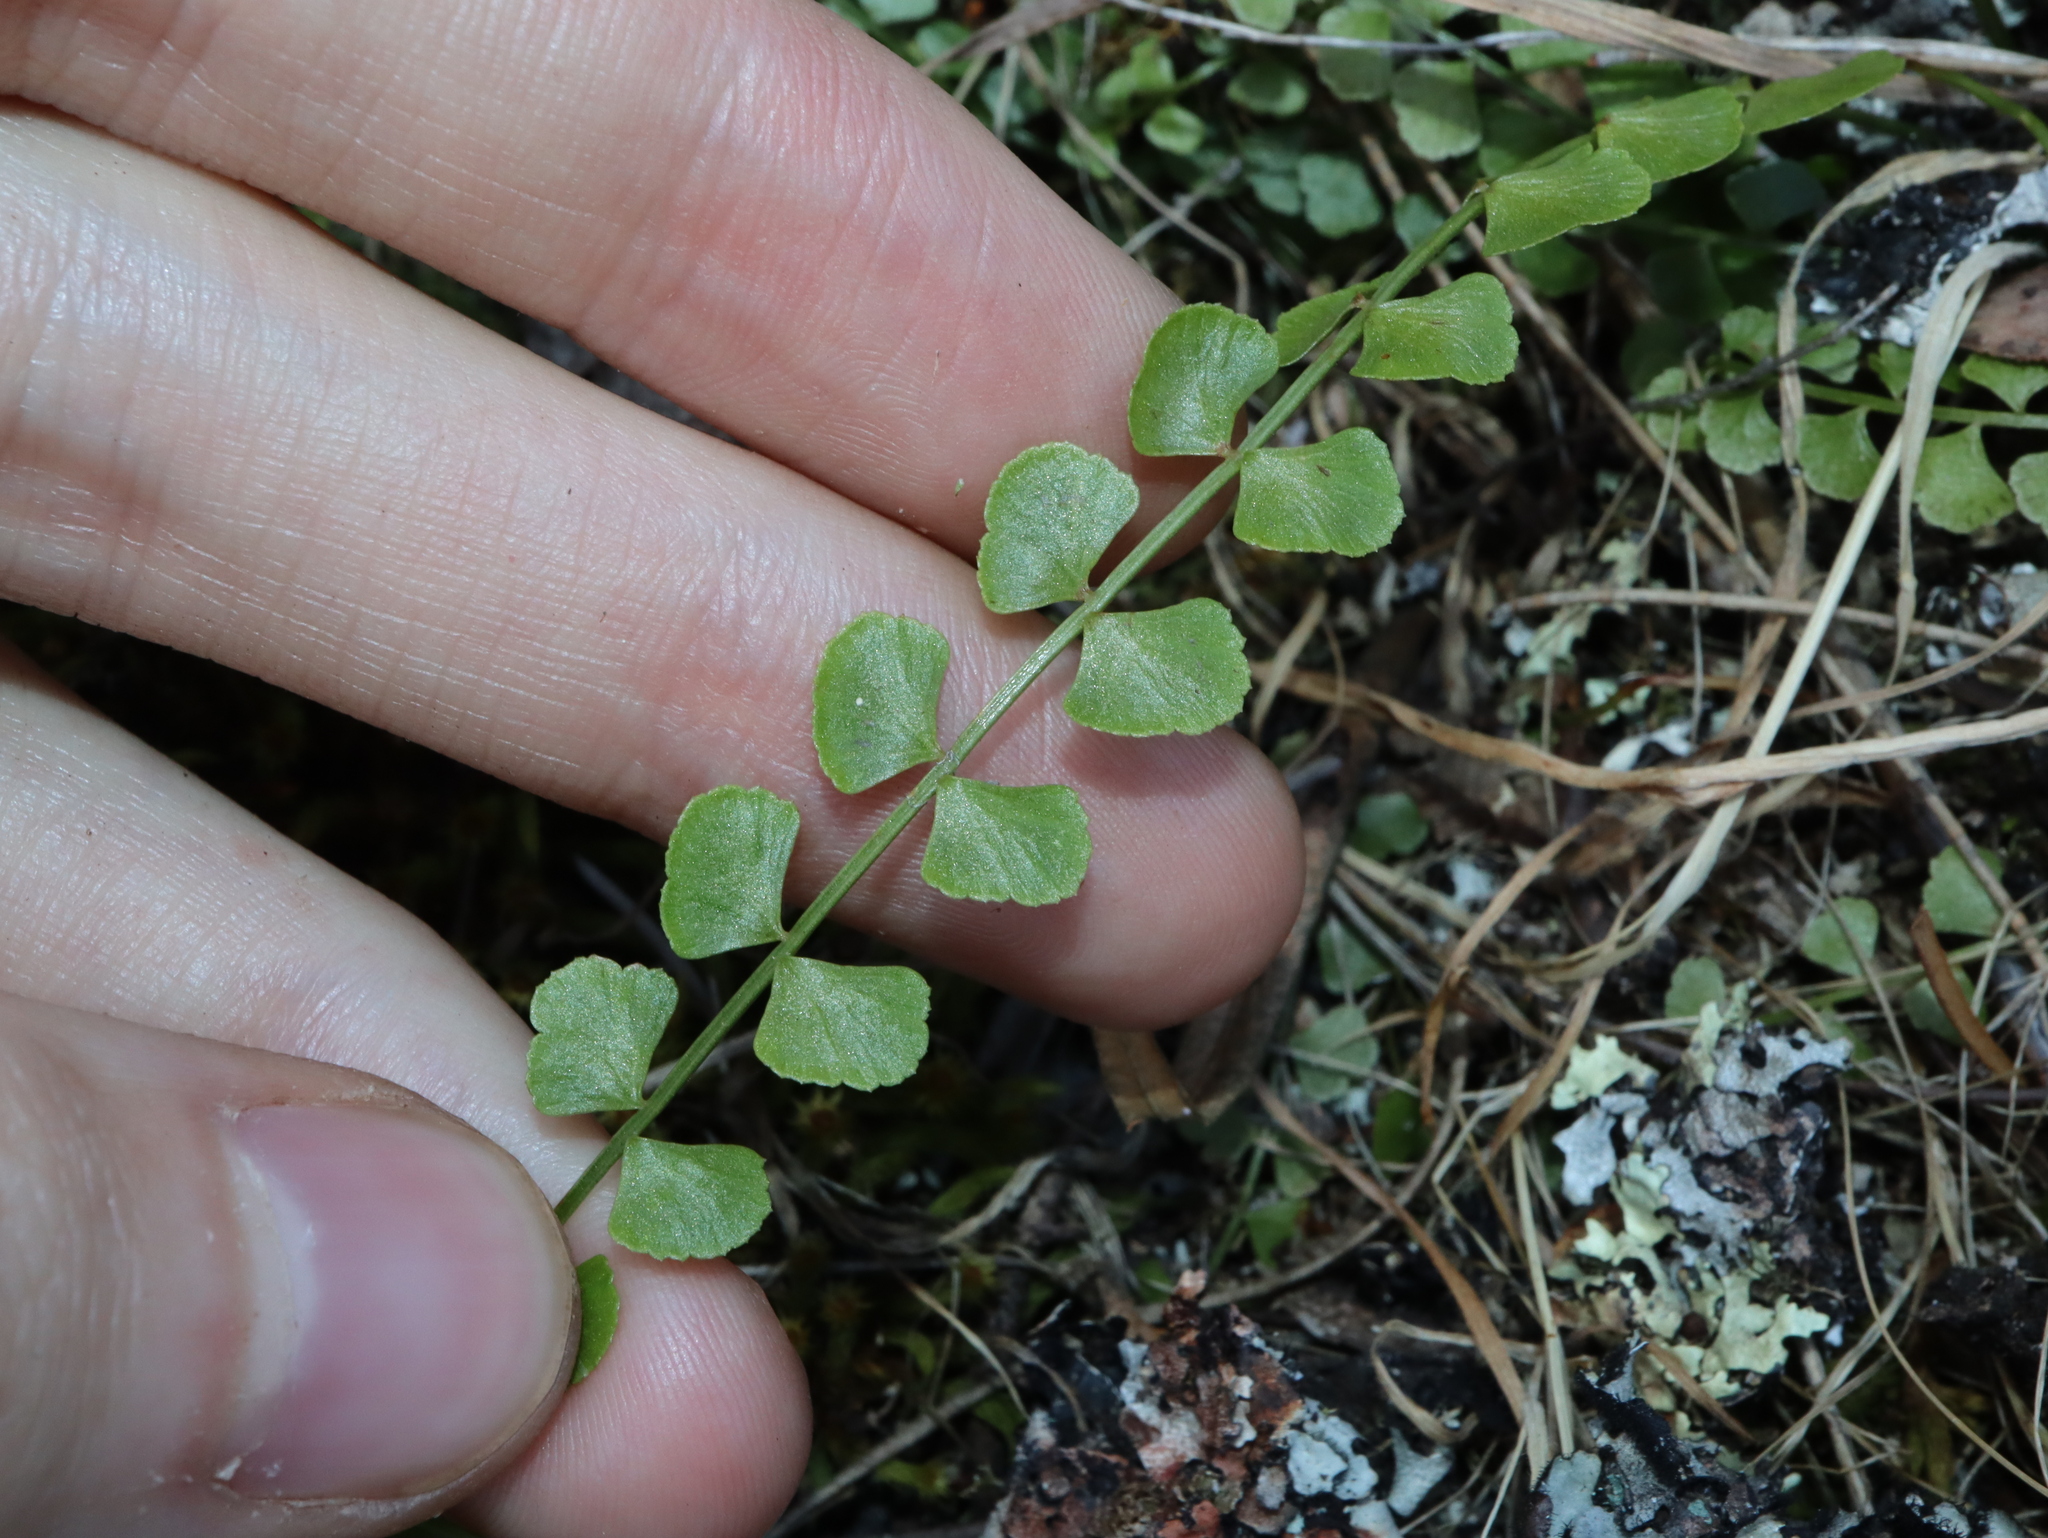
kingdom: Plantae
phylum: Tracheophyta
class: Polypodiopsida
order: Polypodiales
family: Aspleniaceae
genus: Asplenium
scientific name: Asplenium flabellifolium
